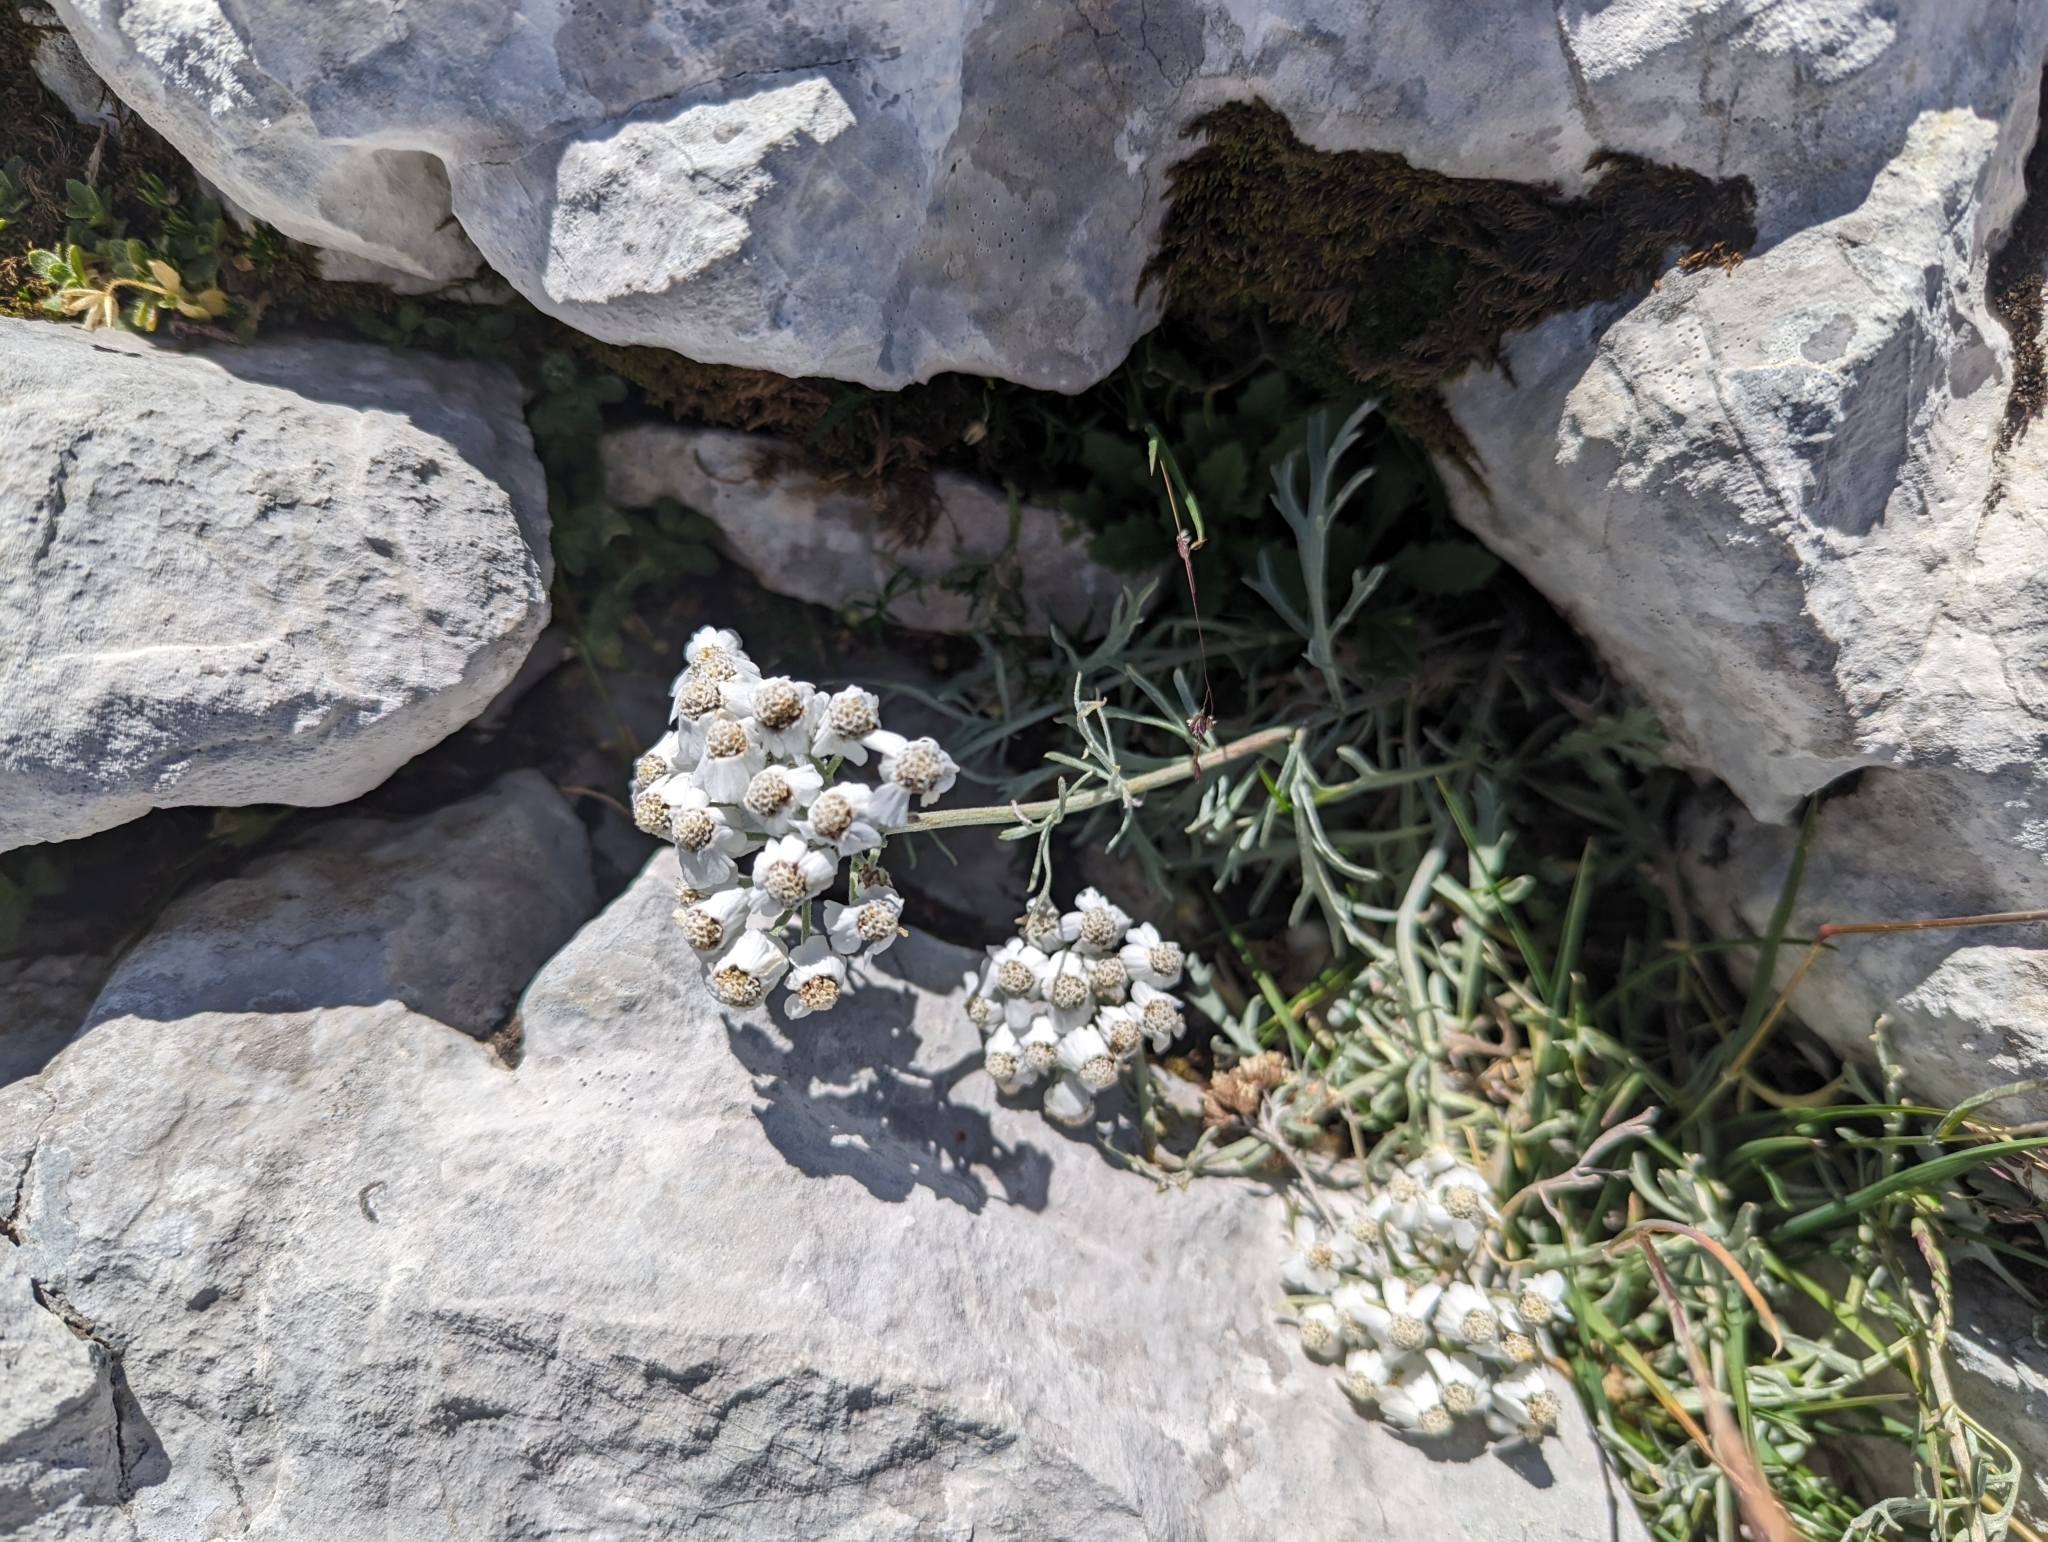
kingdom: Plantae
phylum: Tracheophyta
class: Magnoliopsida
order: Asterales
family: Asteraceae
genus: Achillea
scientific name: Achillea clavennae
